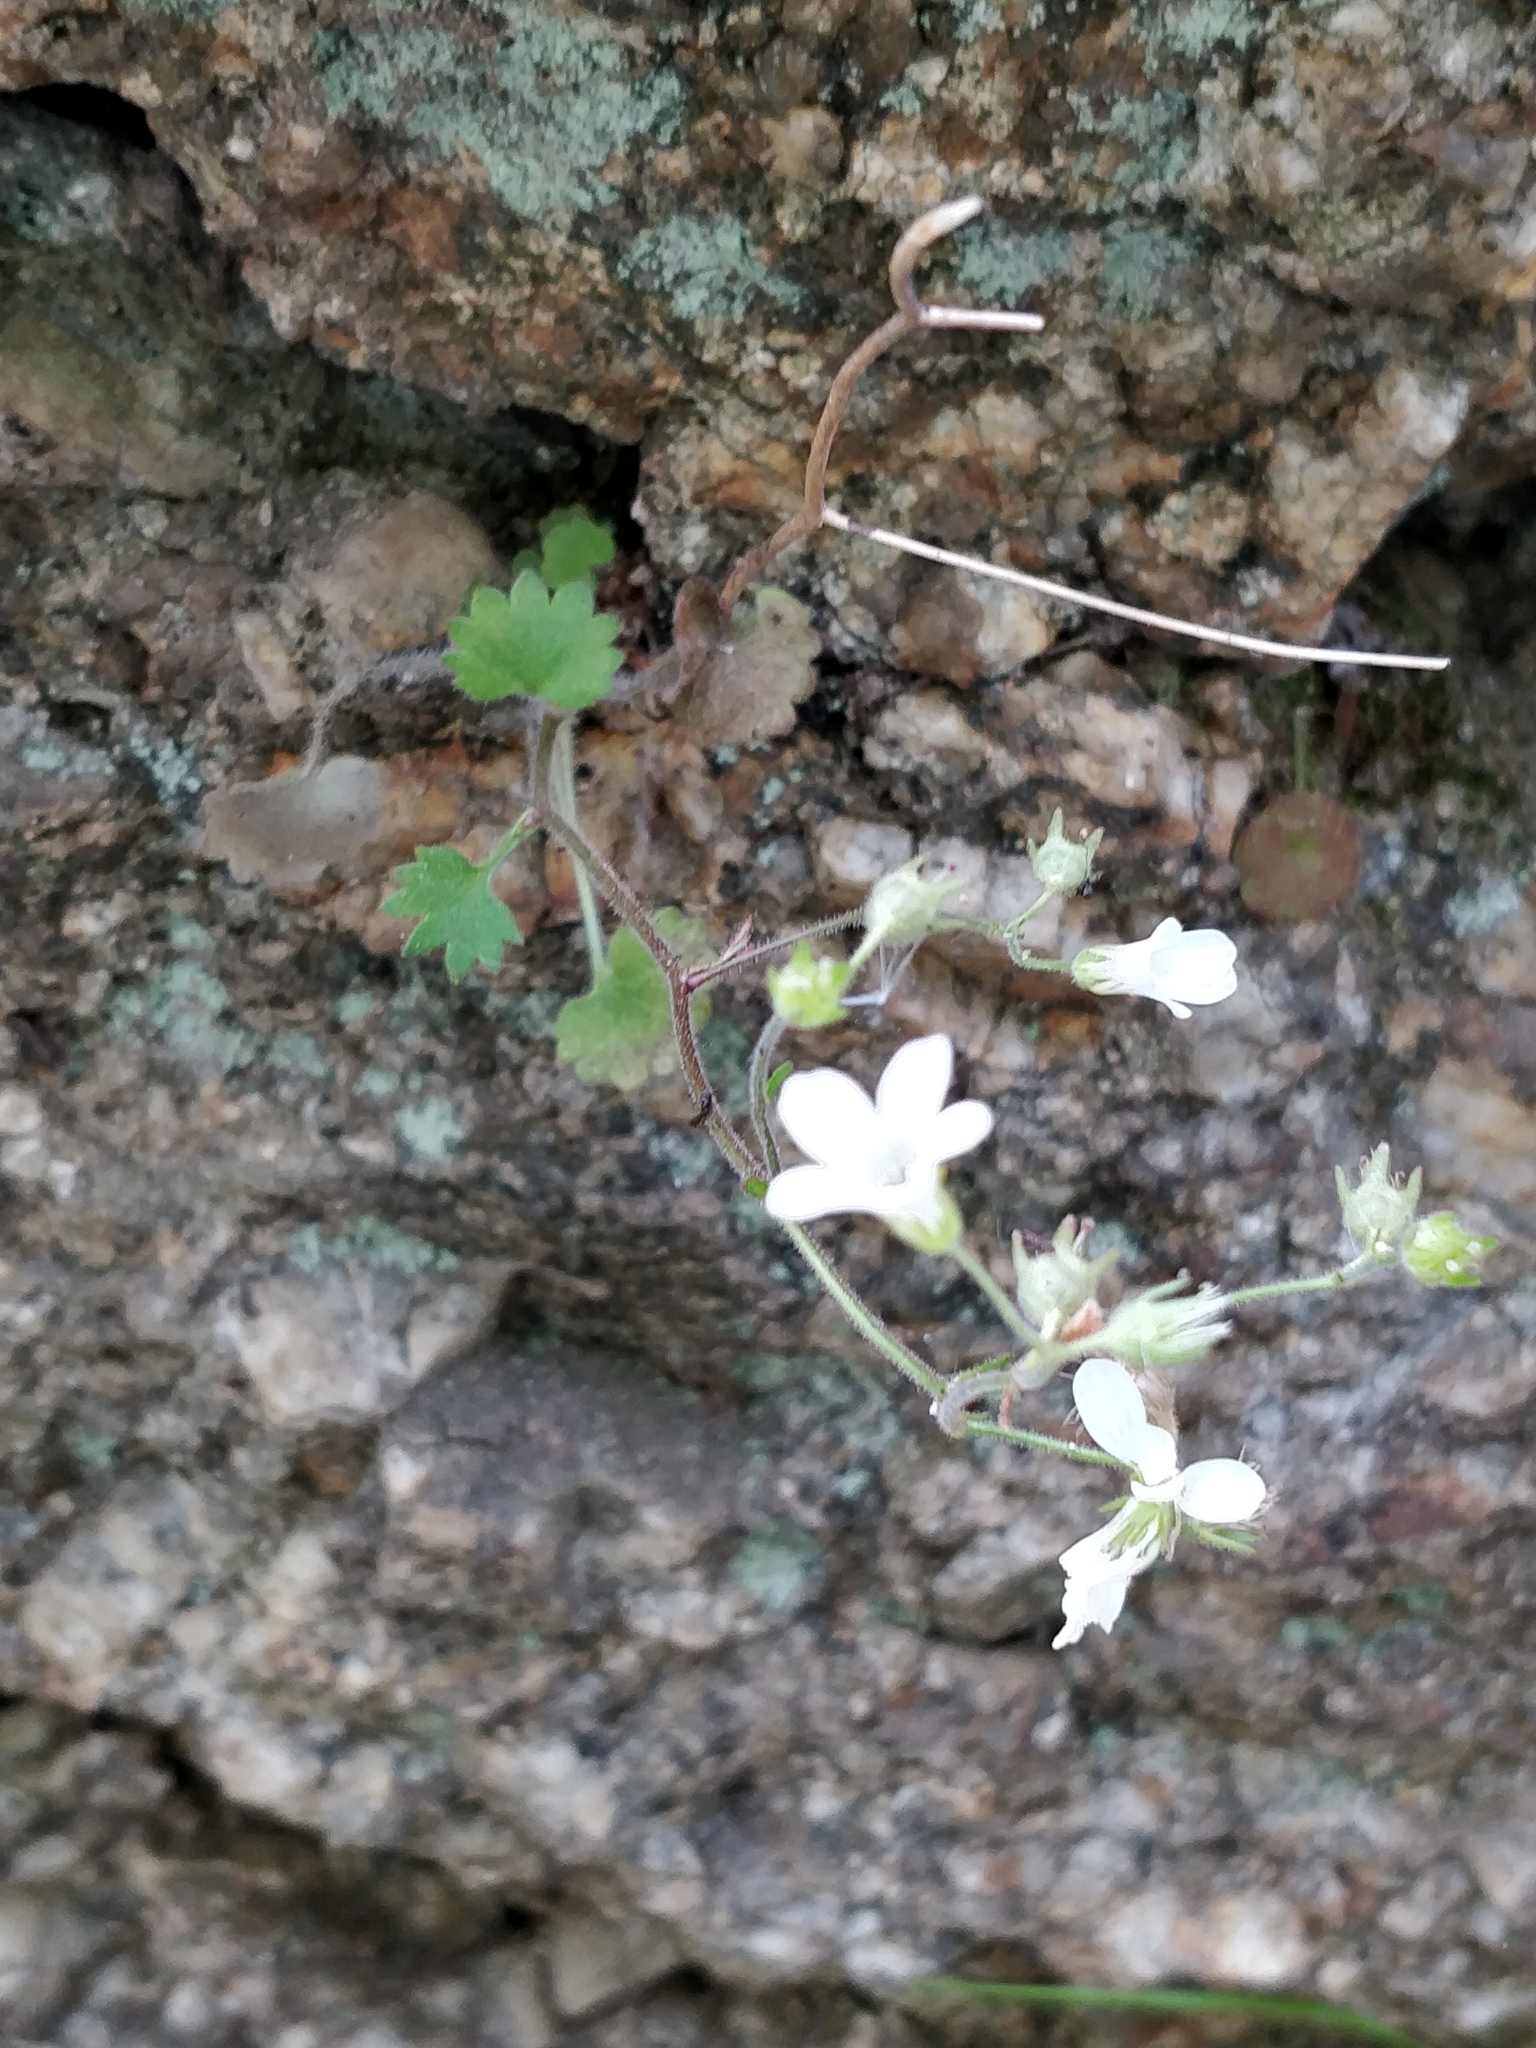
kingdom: Plantae
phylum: Tracheophyta
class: Magnoliopsida
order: Saxifragales
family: Saxifragaceae
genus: Saxifraga
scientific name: Saxifraga granulata
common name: Meadow saxifrage
